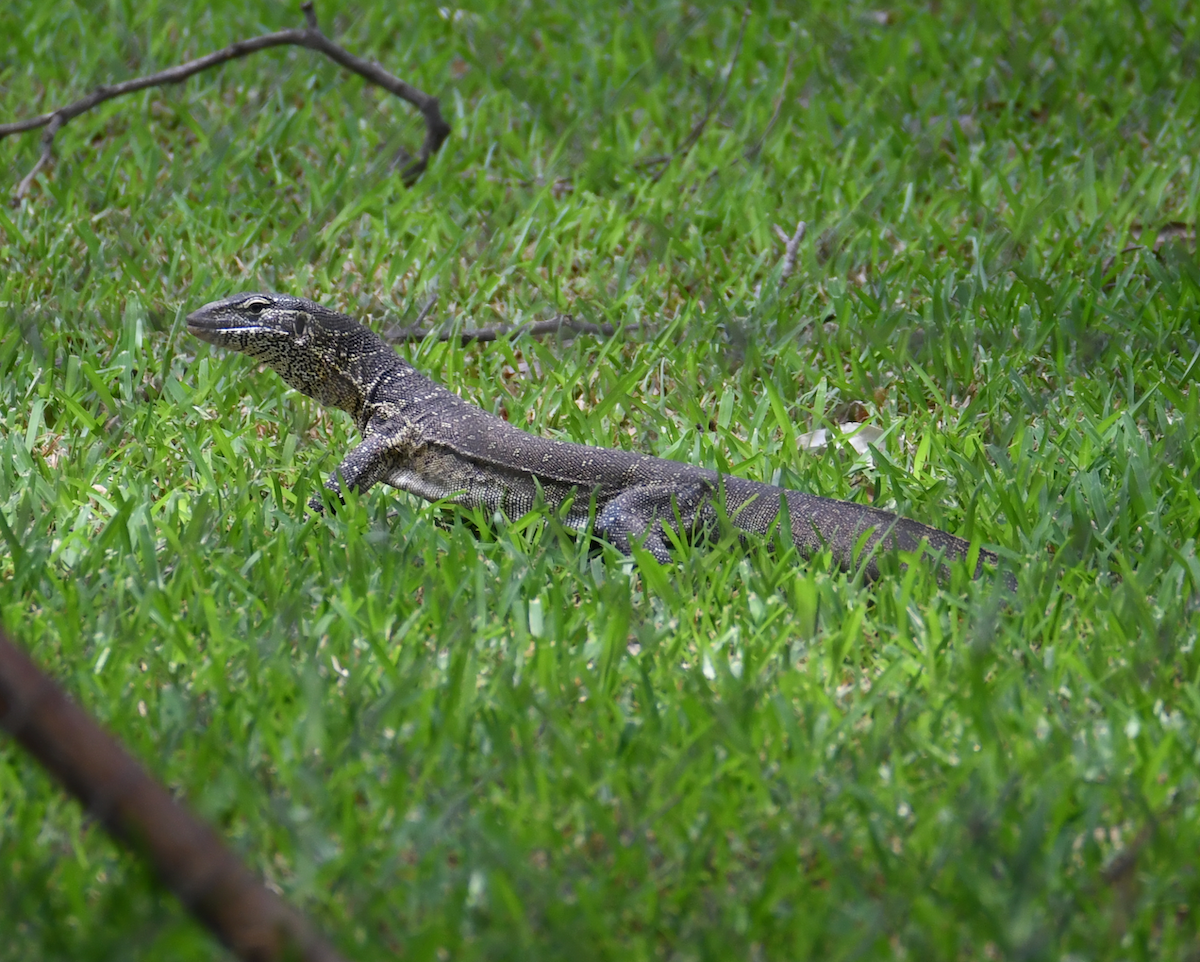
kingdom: Animalia
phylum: Chordata
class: Squamata
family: Varanidae
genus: Varanus
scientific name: Varanus niloticus
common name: Nile monitor
